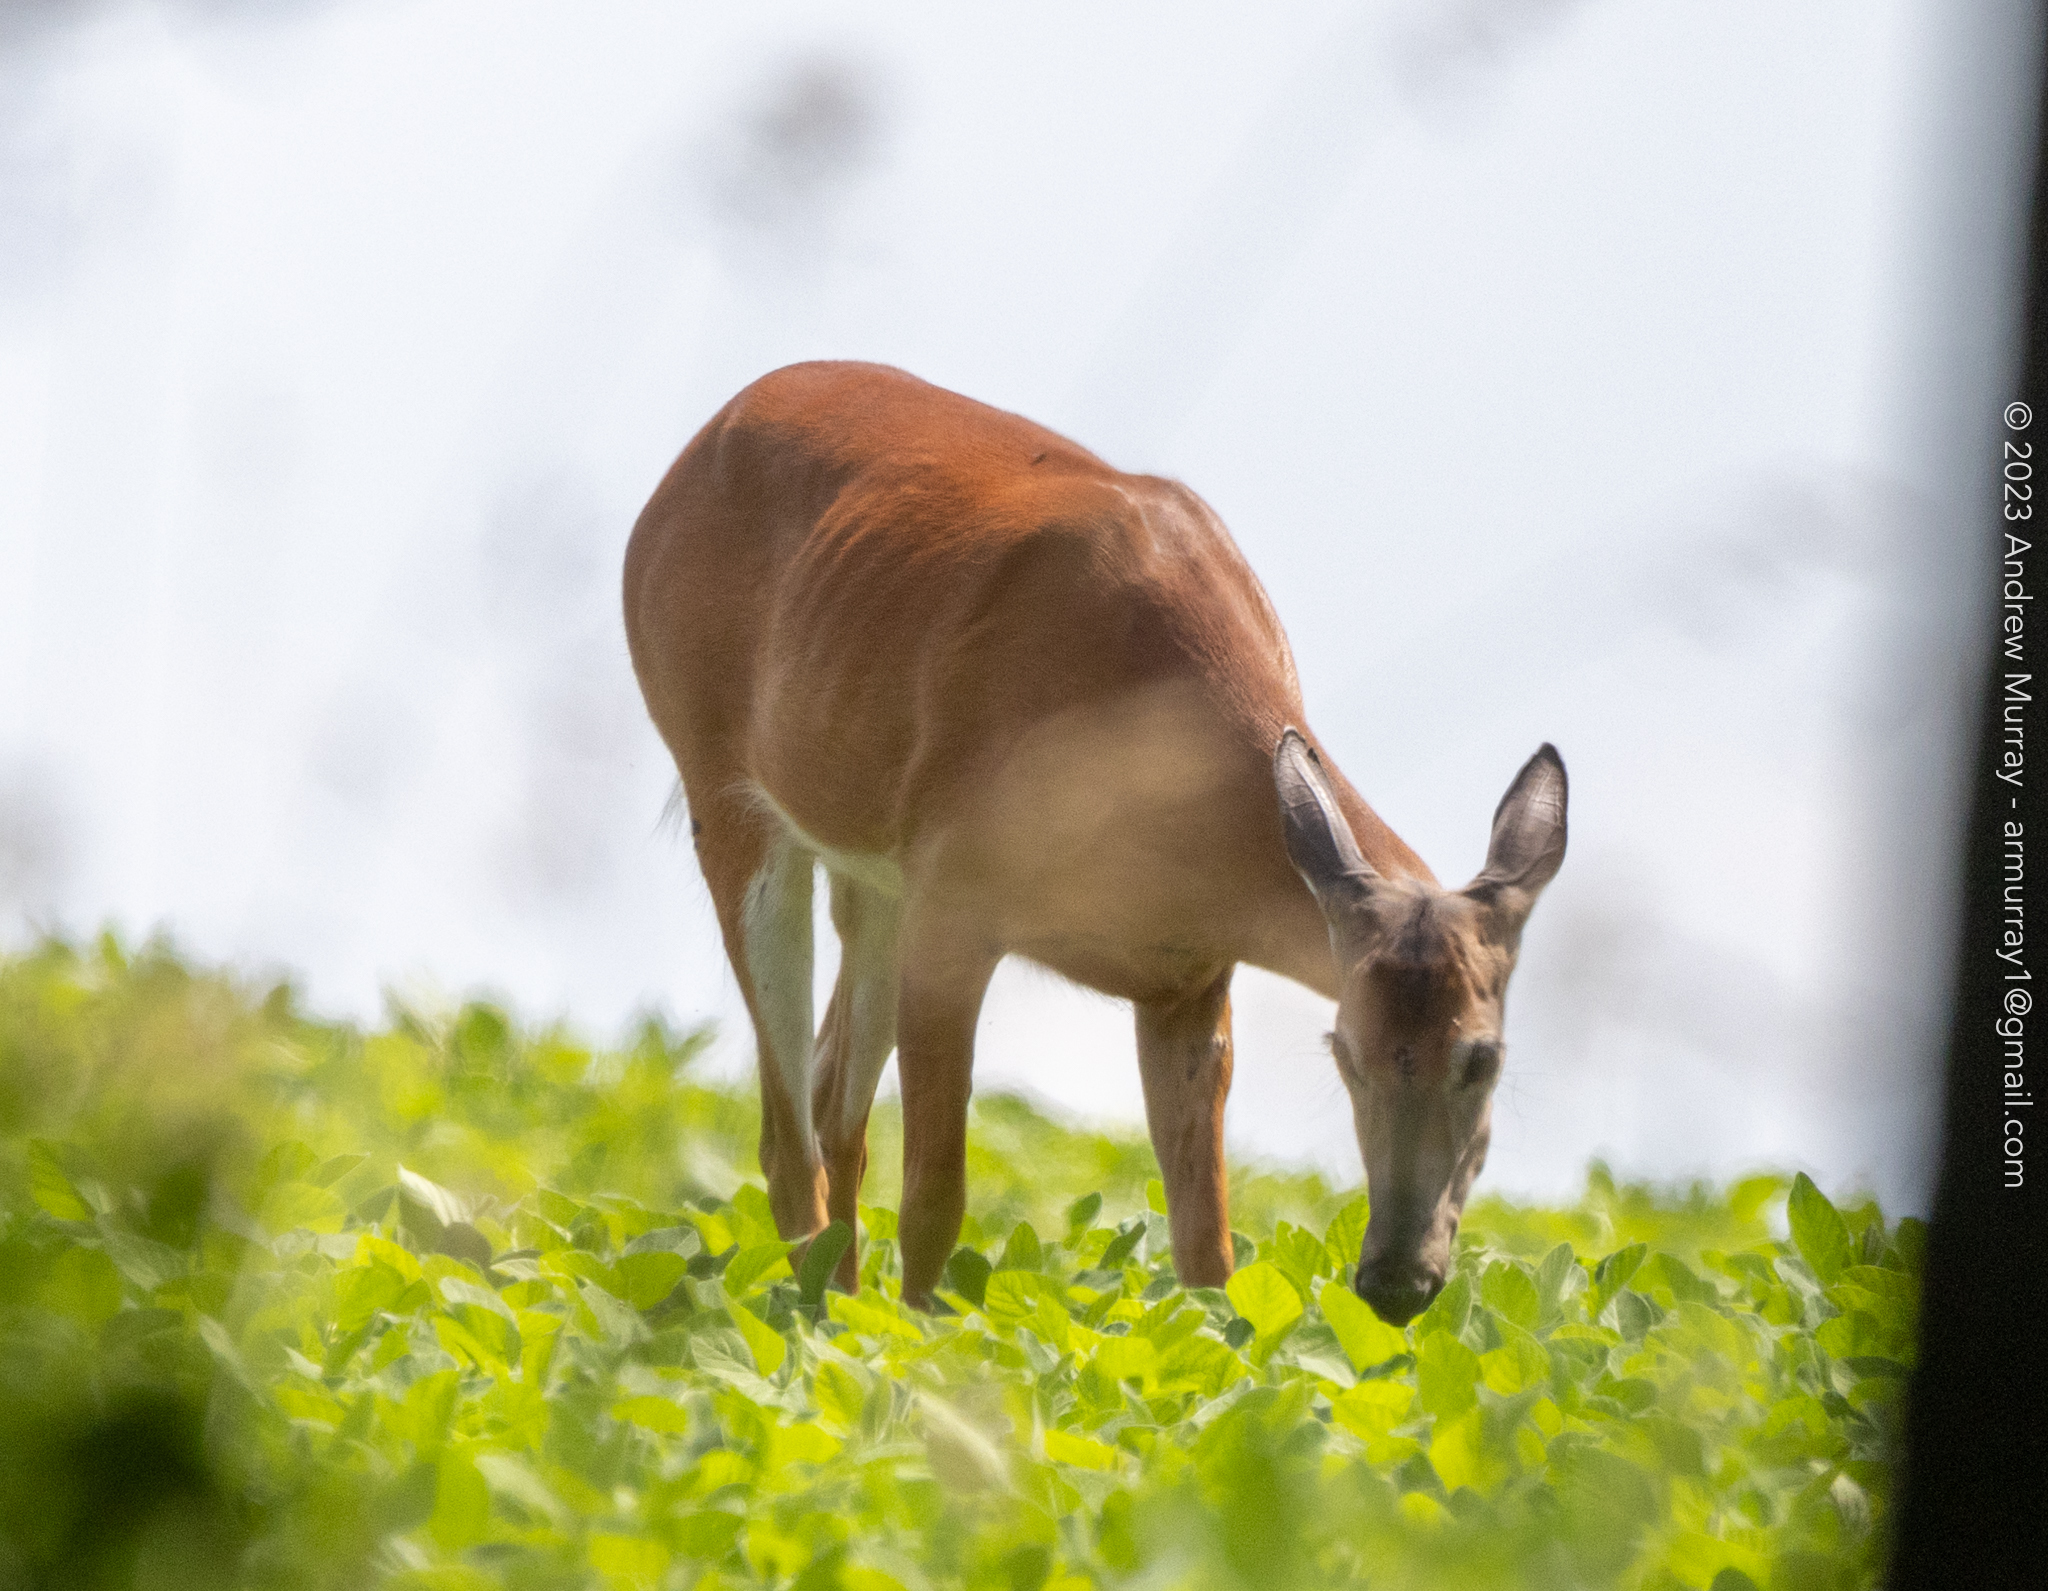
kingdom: Animalia
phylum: Chordata
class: Mammalia
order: Artiodactyla
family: Cervidae
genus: Odocoileus
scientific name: Odocoileus virginianus
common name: White-tailed deer
